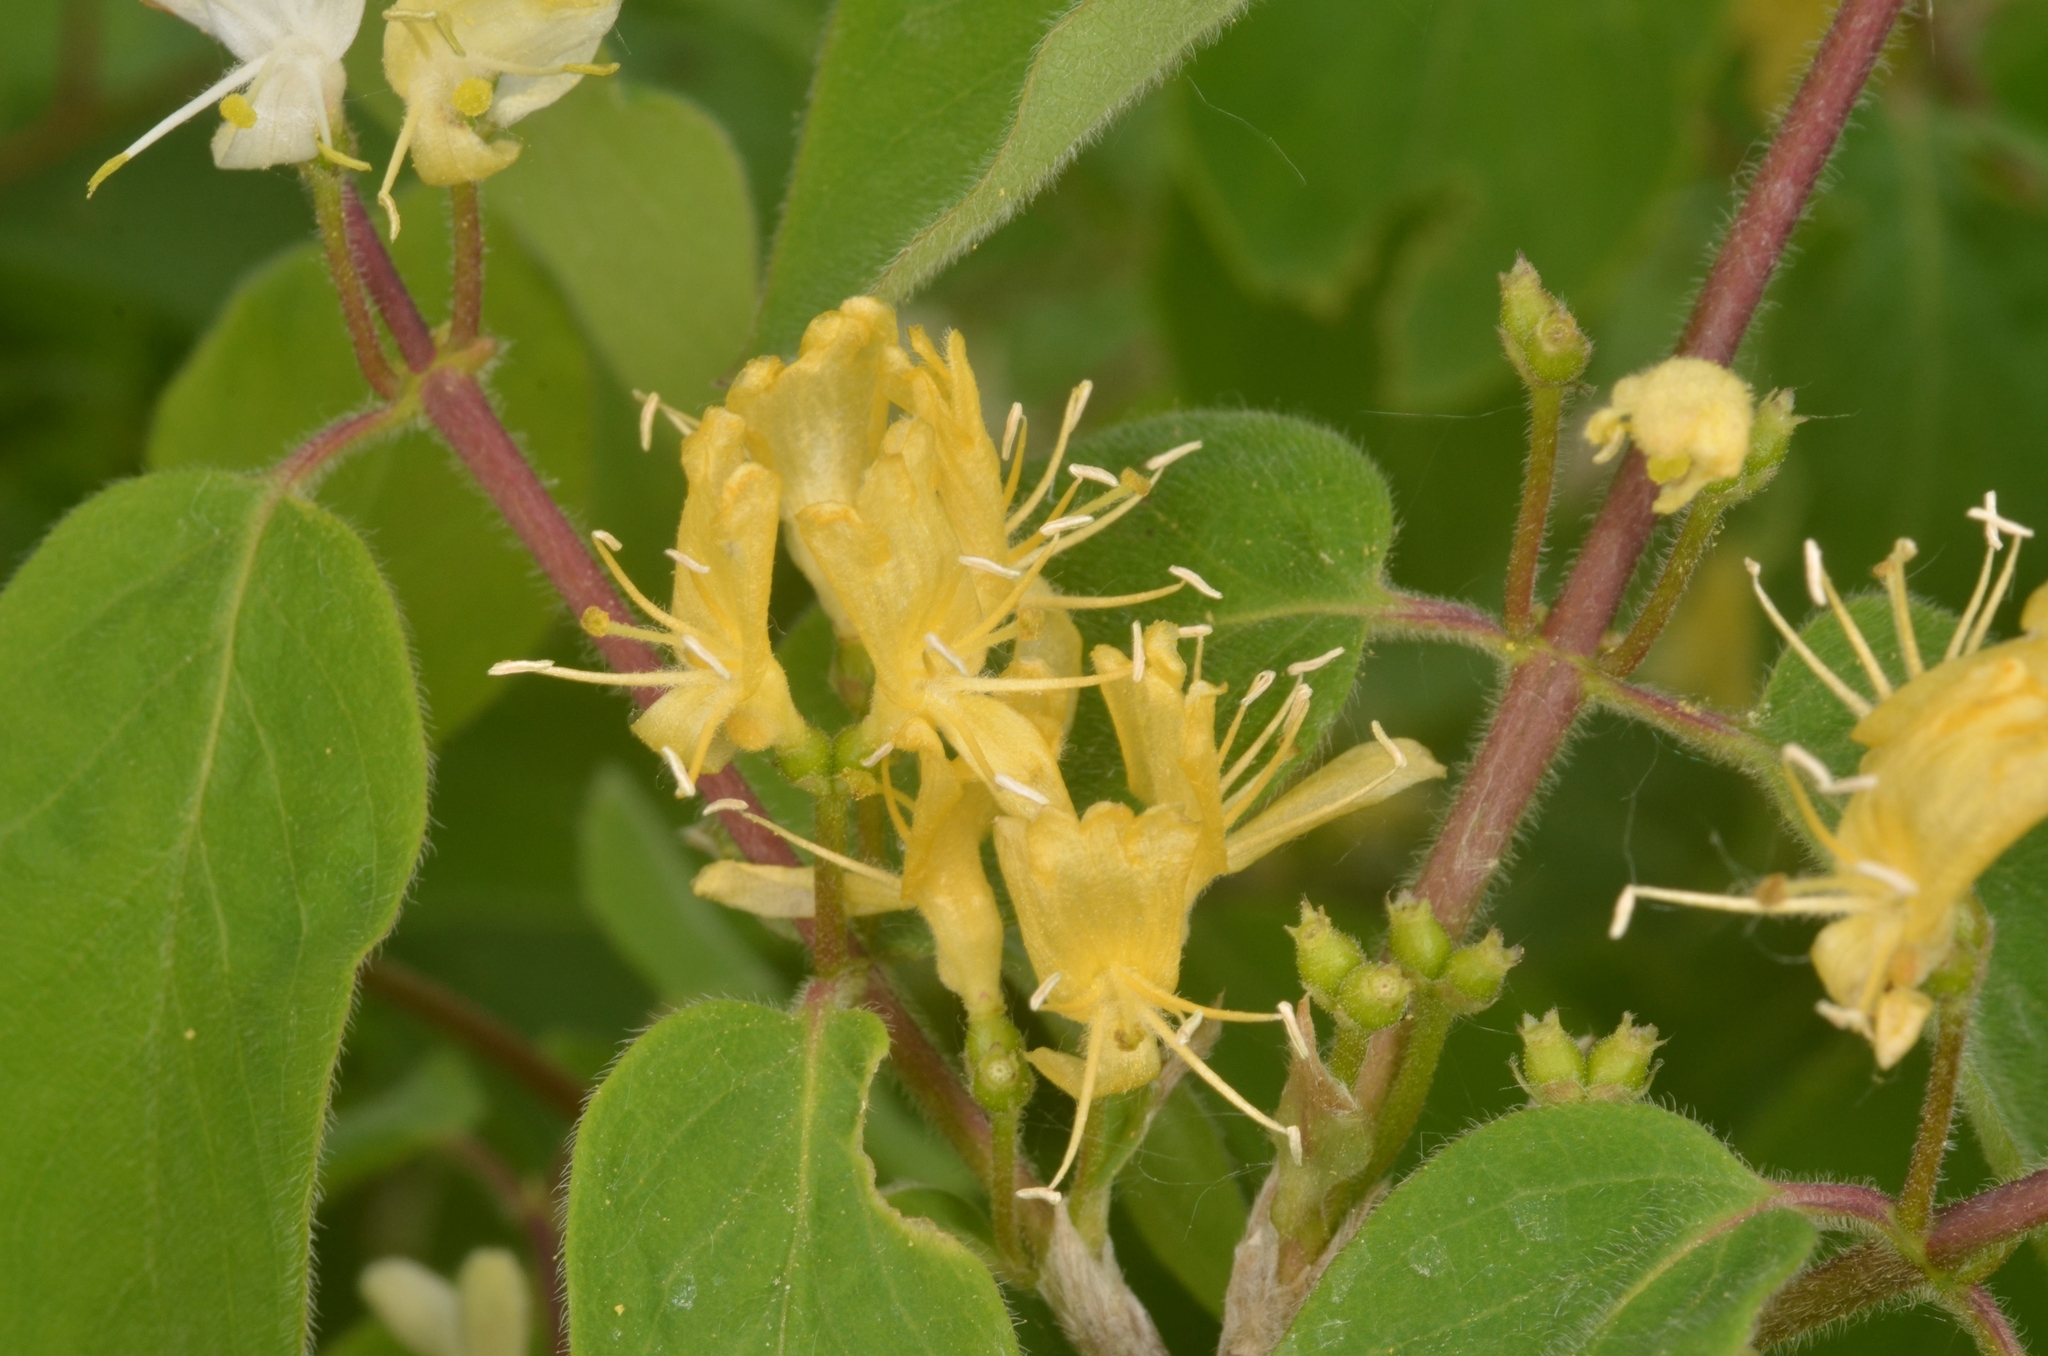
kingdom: Plantae
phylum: Tracheophyta
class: Magnoliopsida
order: Dipsacales
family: Caprifoliaceae
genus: Lonicera
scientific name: Lonicera xylosteum
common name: Fly honeysuckle
